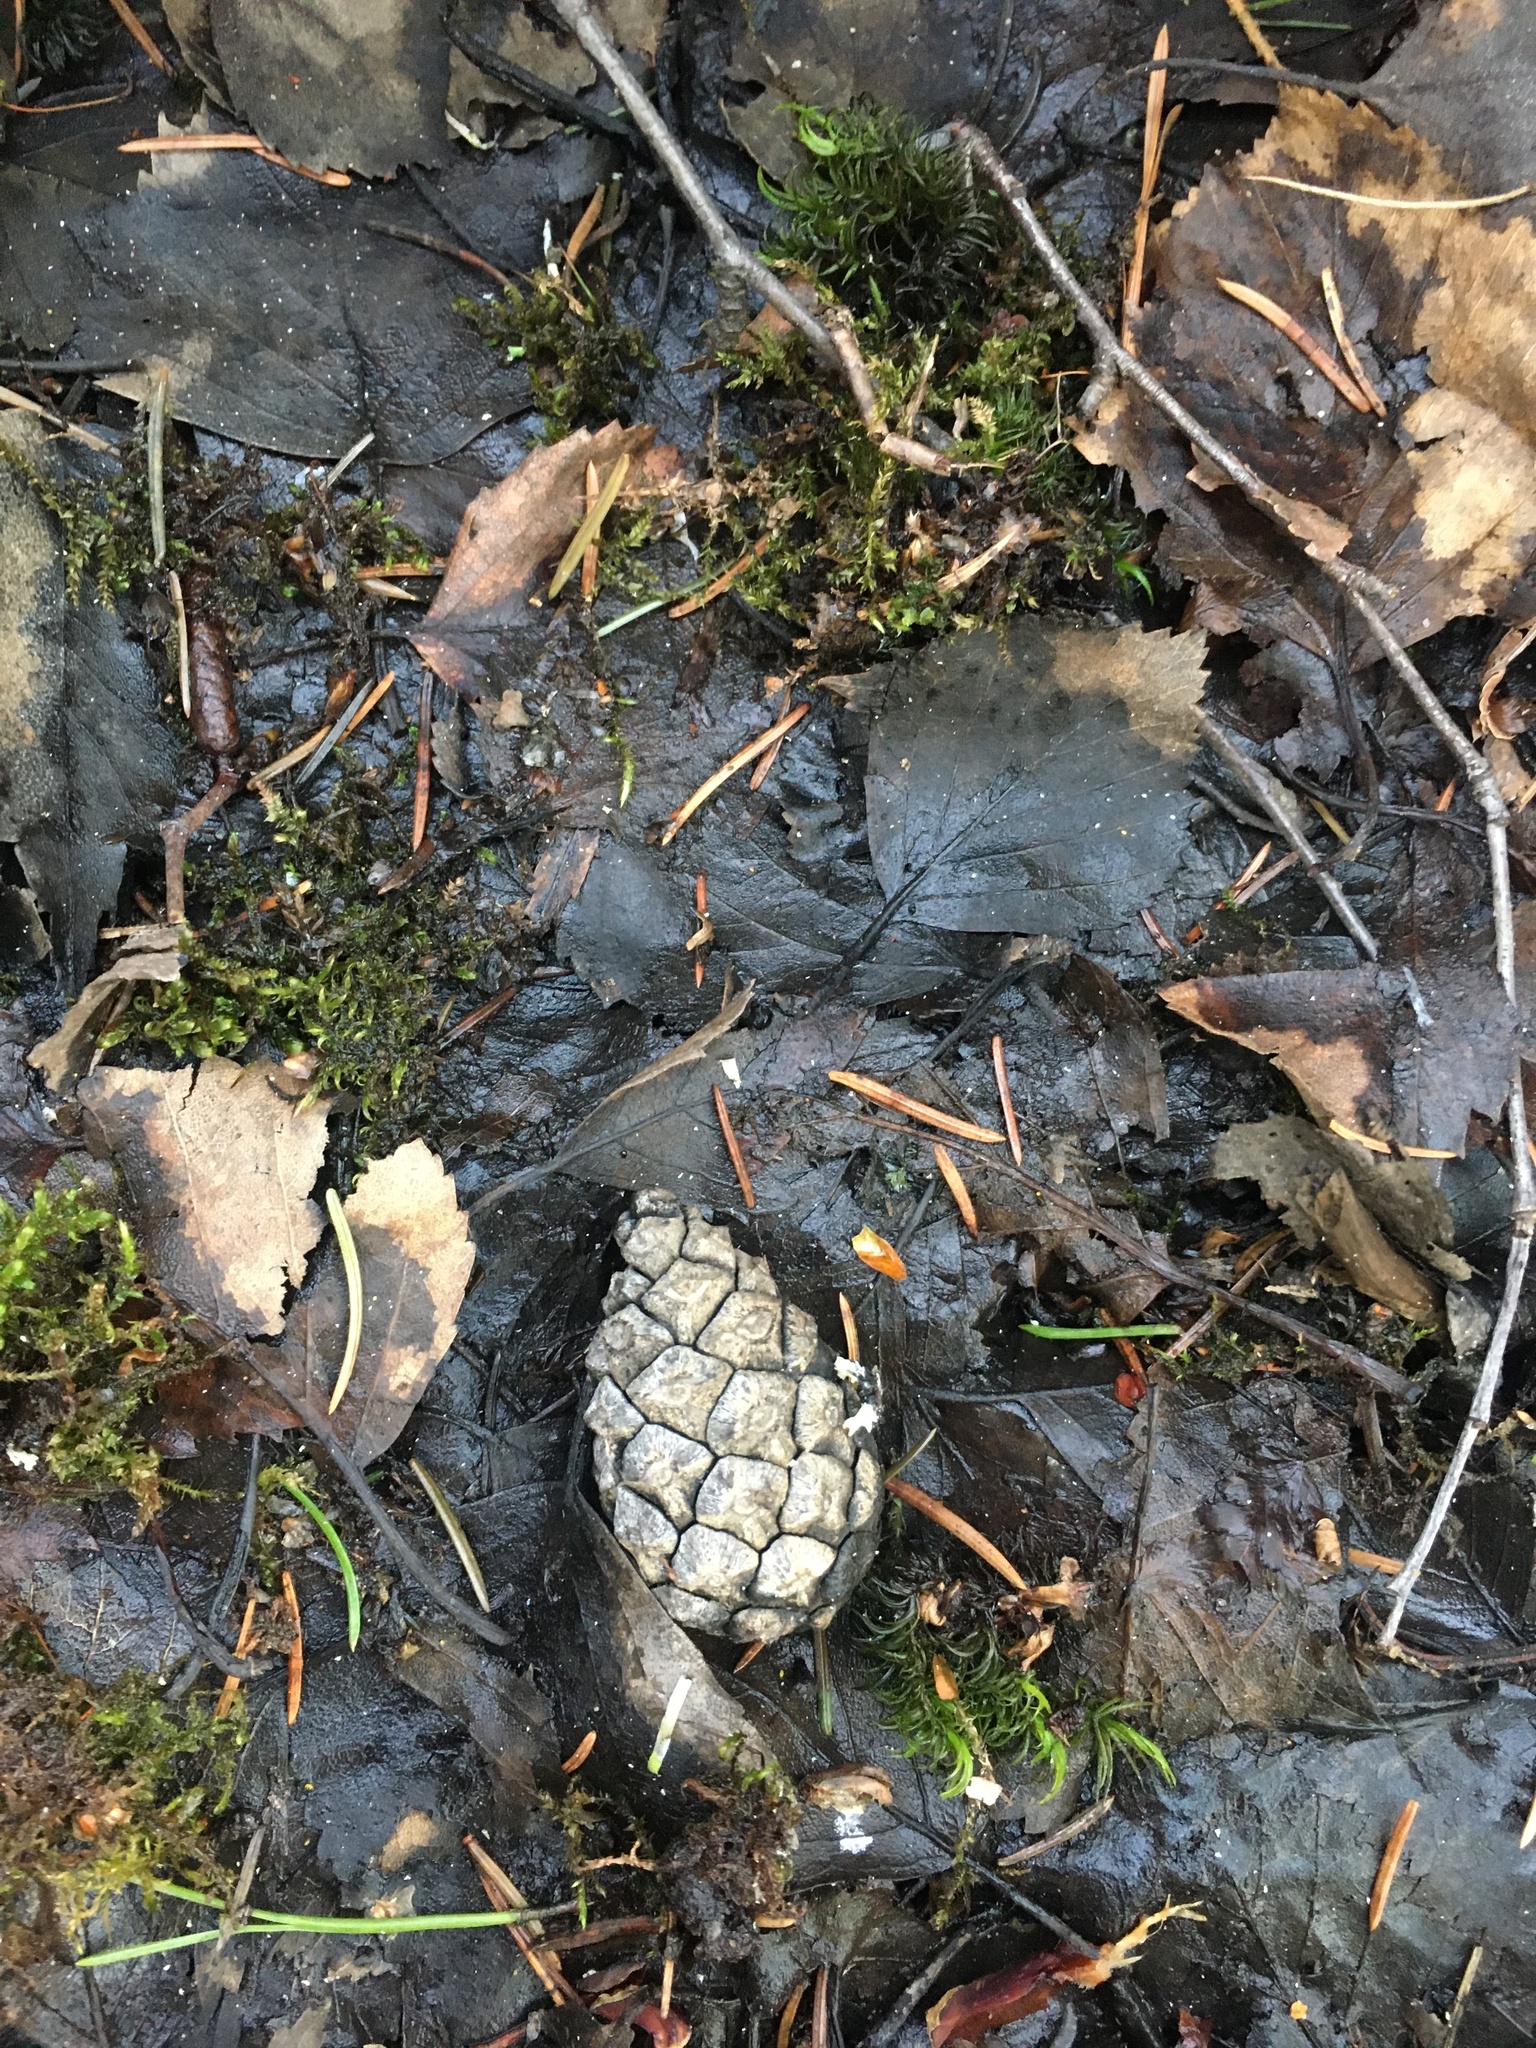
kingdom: Plantae
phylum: Tracheophyta
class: Pinopsida
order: Pinales
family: Pinaceae
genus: Pinus
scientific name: Pinus sylvestris
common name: Scots pine
